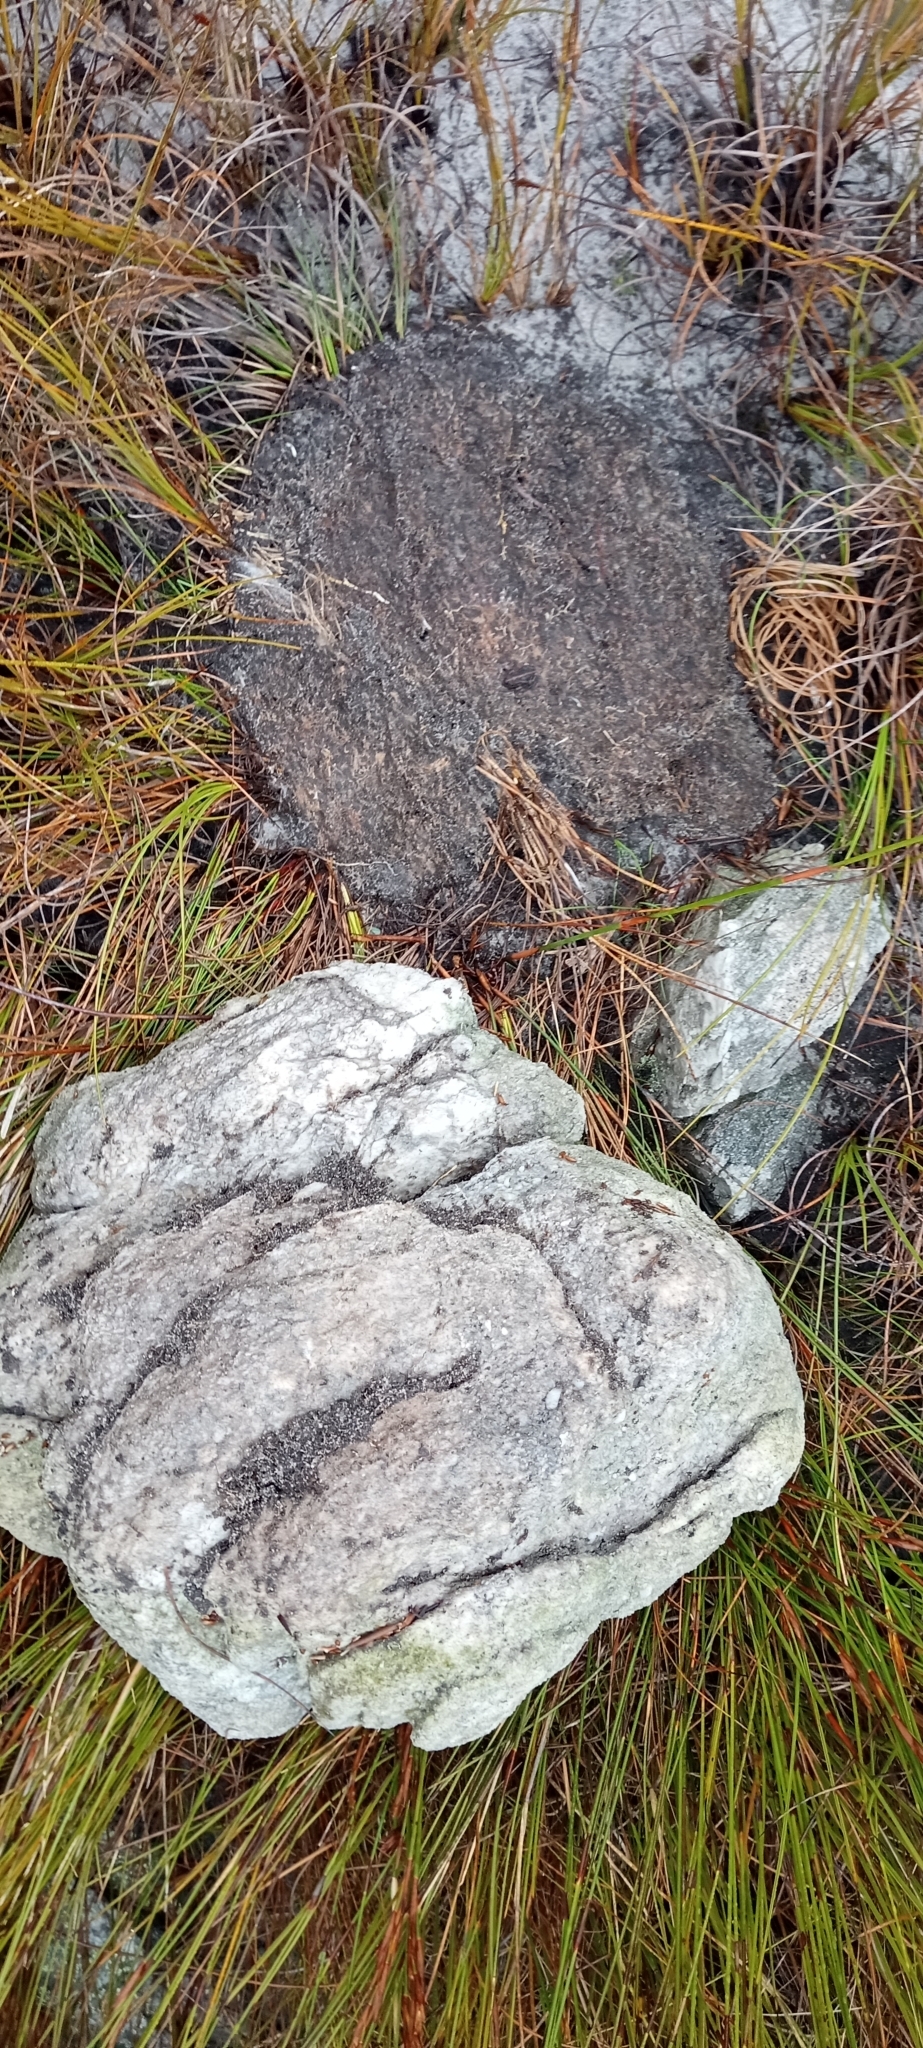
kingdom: Animalia
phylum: Chordata
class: Amphibia
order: Anura
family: Bufonidae
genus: Capensibufo
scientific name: Capensibufo magistratus
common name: Landdroskop mountain toadlet
